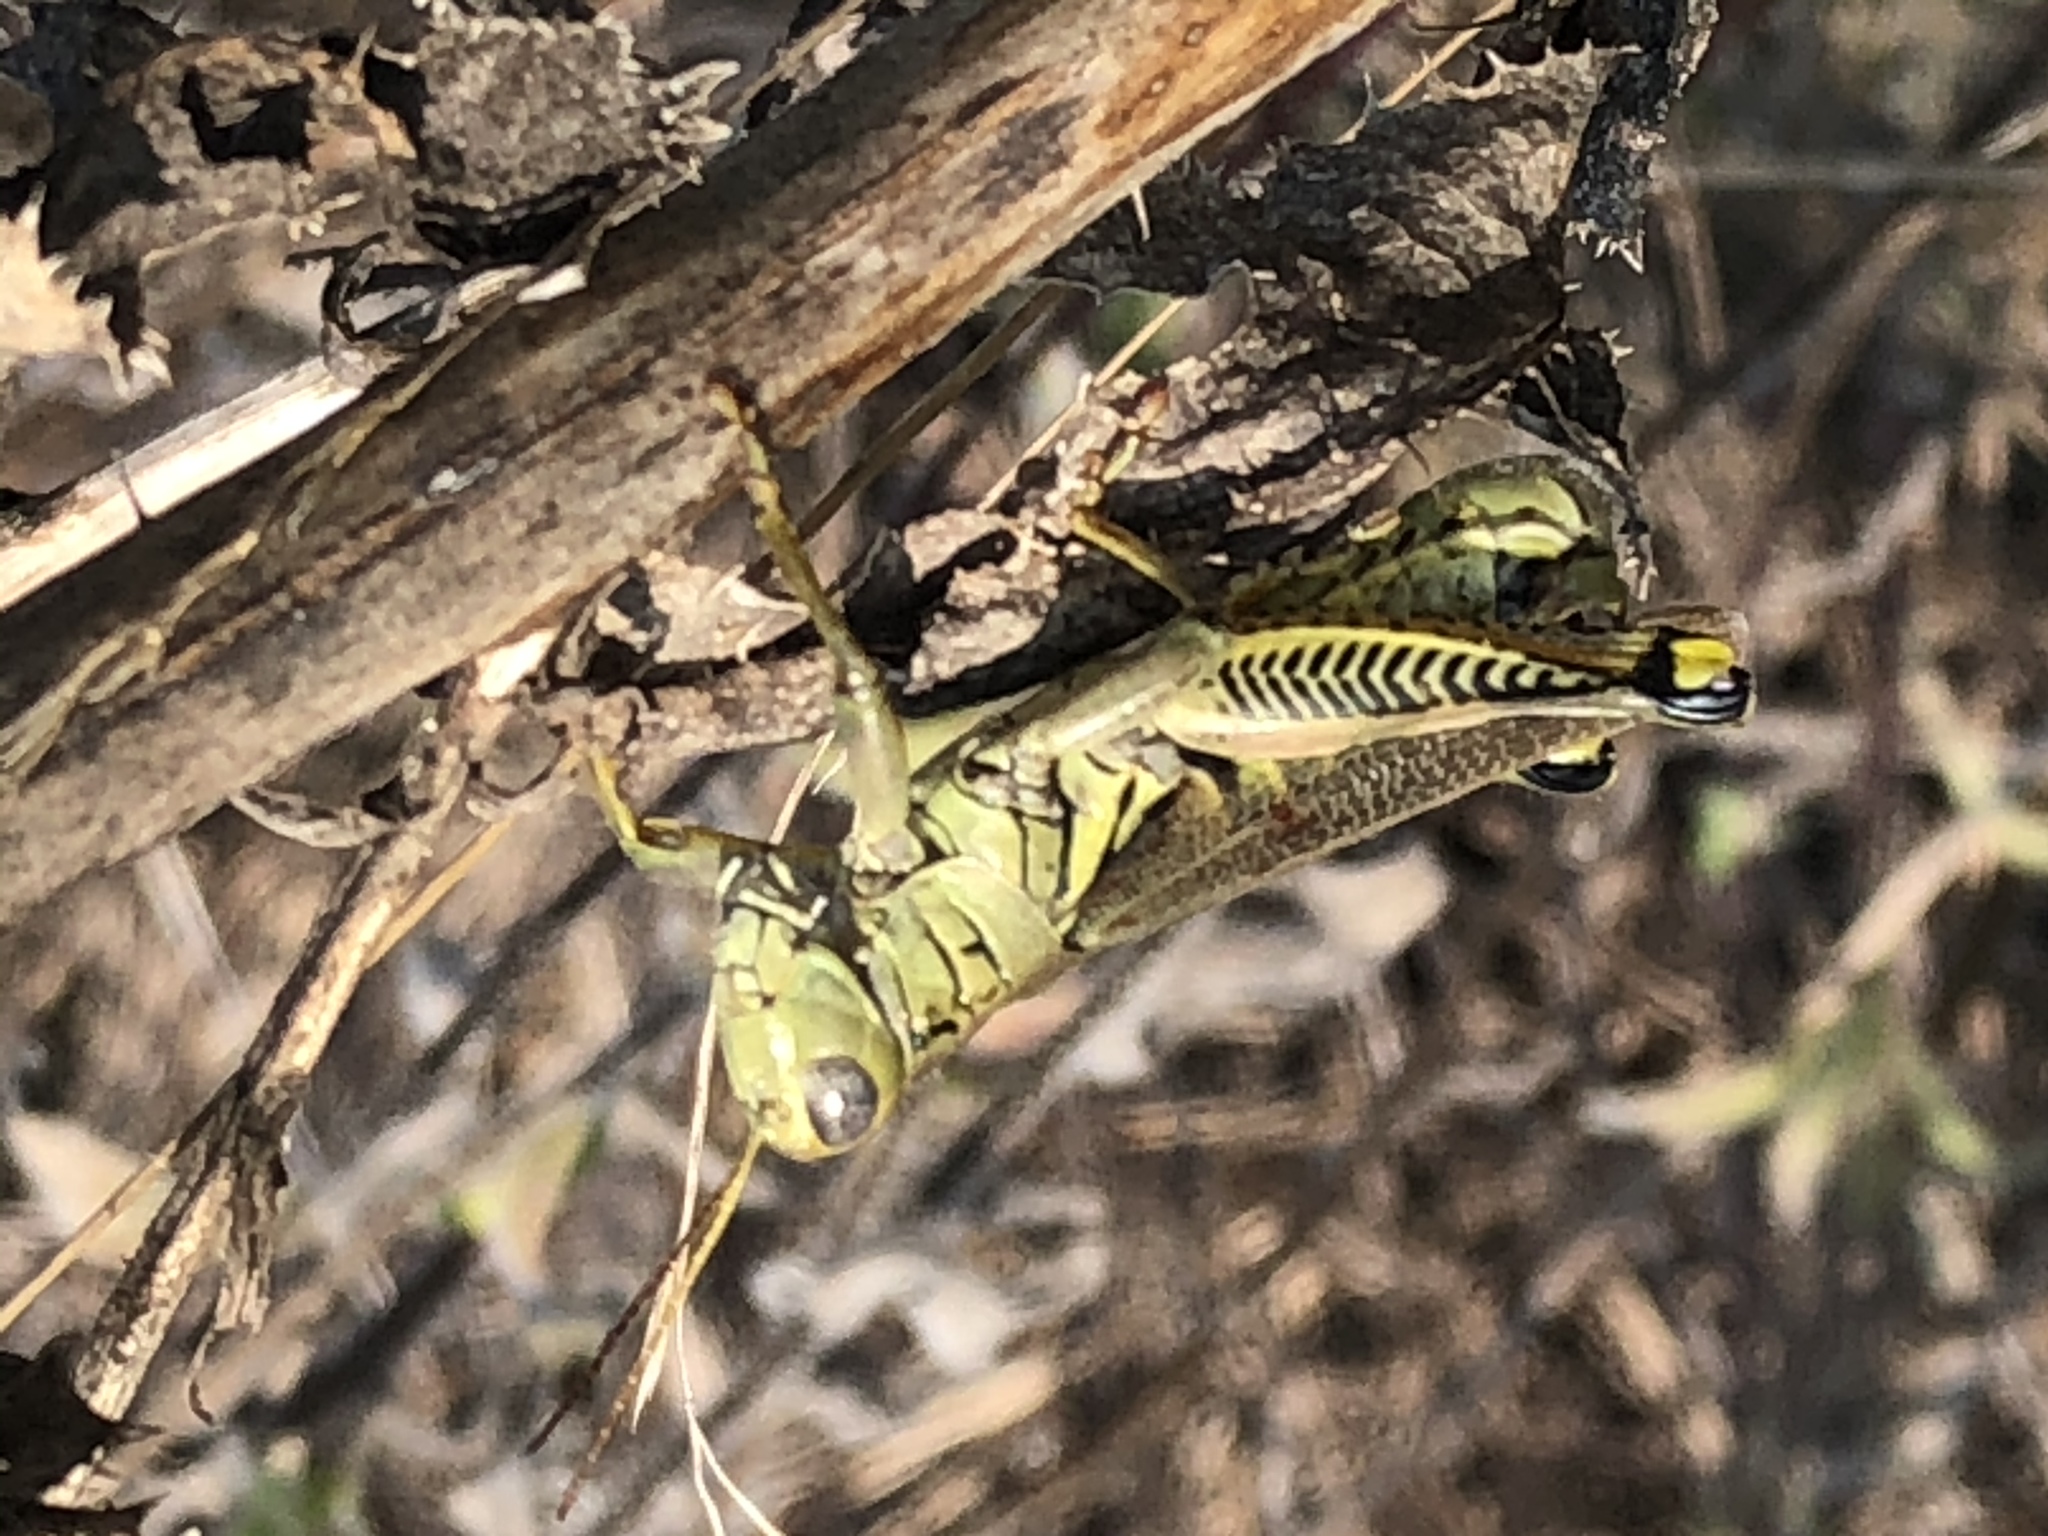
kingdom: Animalia
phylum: Arthropoda
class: Insecta
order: Orthoptera
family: Acrididae
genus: Melanoplus
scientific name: Melanoplus differentialis
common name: Differential grasshopper
